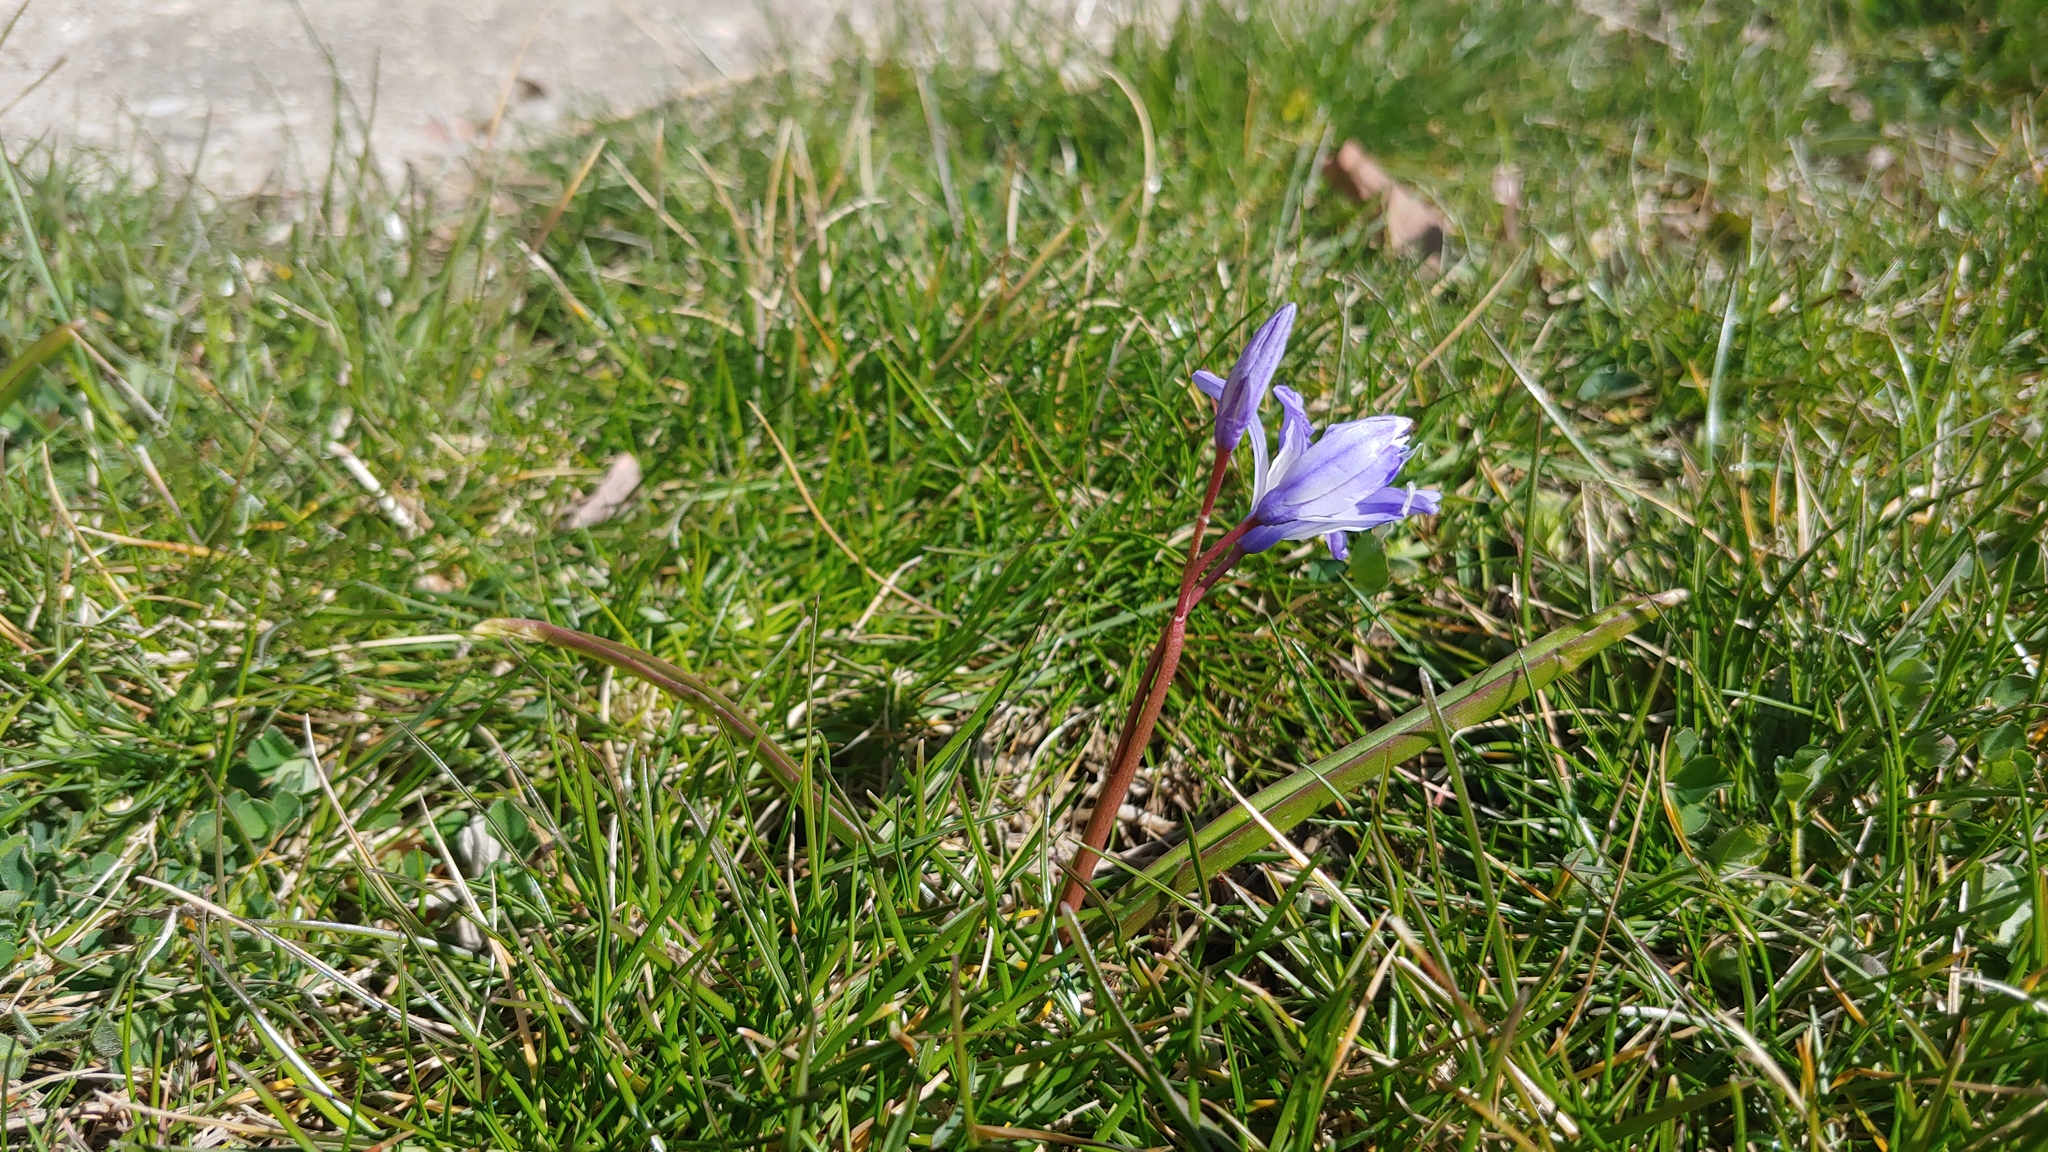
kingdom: Plantae
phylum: Tracheophyta
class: Liliopsida
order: Asparagales
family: Asparagaceae
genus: Scilla
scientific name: Scilla luciliae
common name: Boissier's glory-of-the-snow
